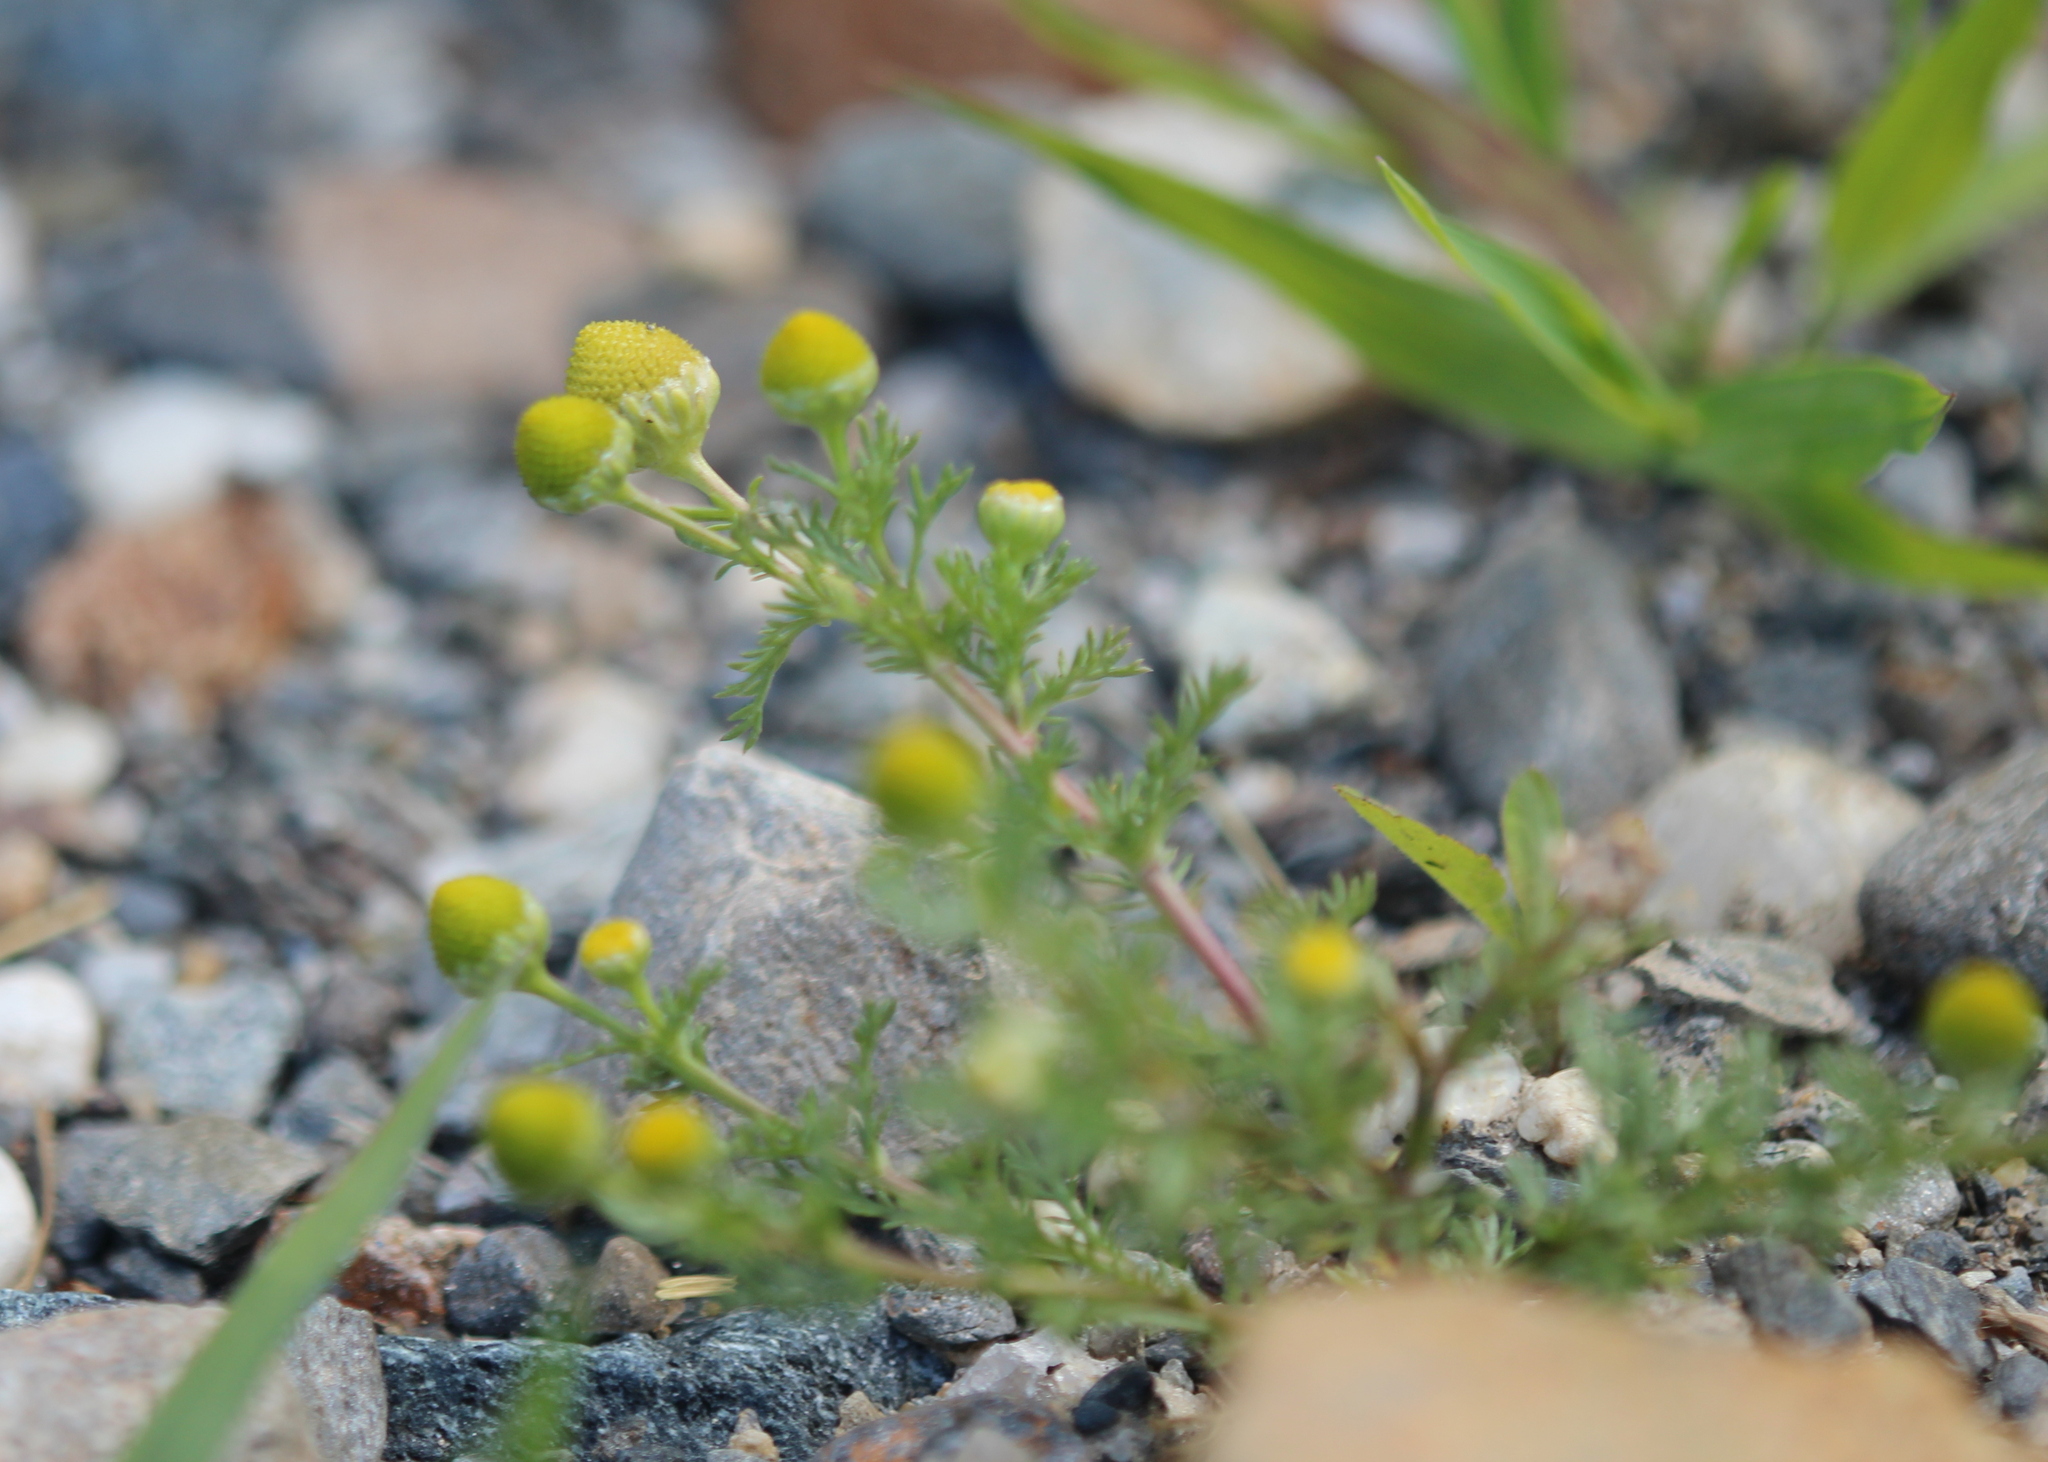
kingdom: Plantae
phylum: Tracheophyta
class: Magnoliopsida
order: Asterales
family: Asteraceae
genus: Matricaria
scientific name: Matricaria discoidea
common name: Disc mayweed
